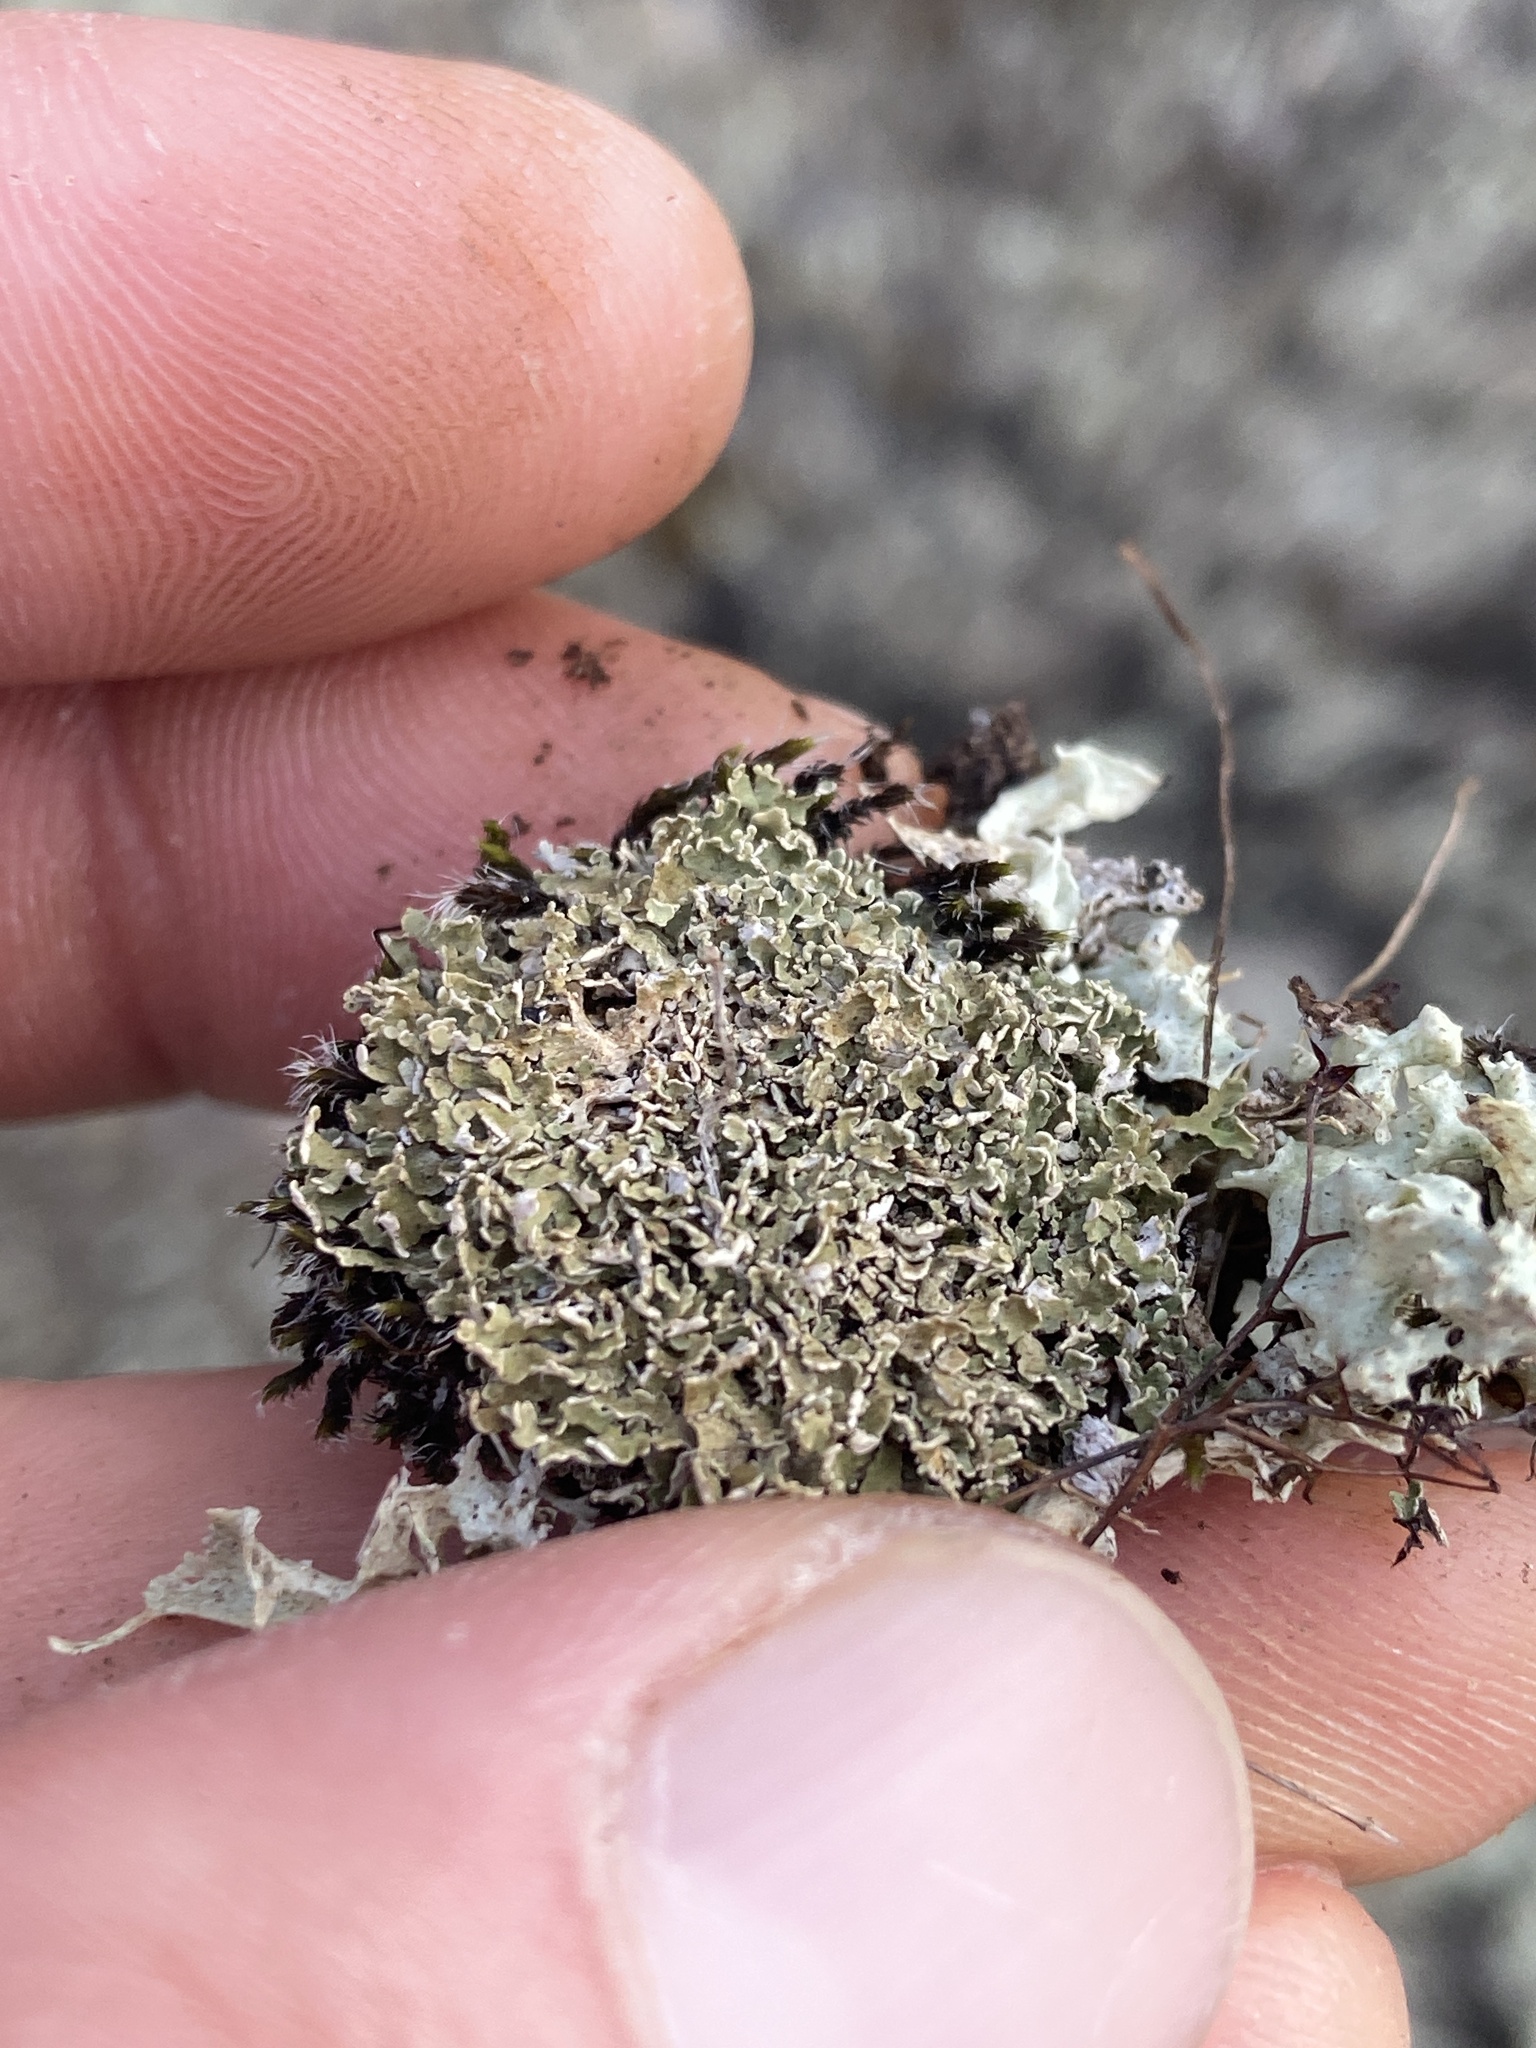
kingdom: Fungi
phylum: Ascomycota
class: Lecanoromycetes
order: Lecanorales
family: Cladoniaceae
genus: Cladonia
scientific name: Cladonia strepsilis
